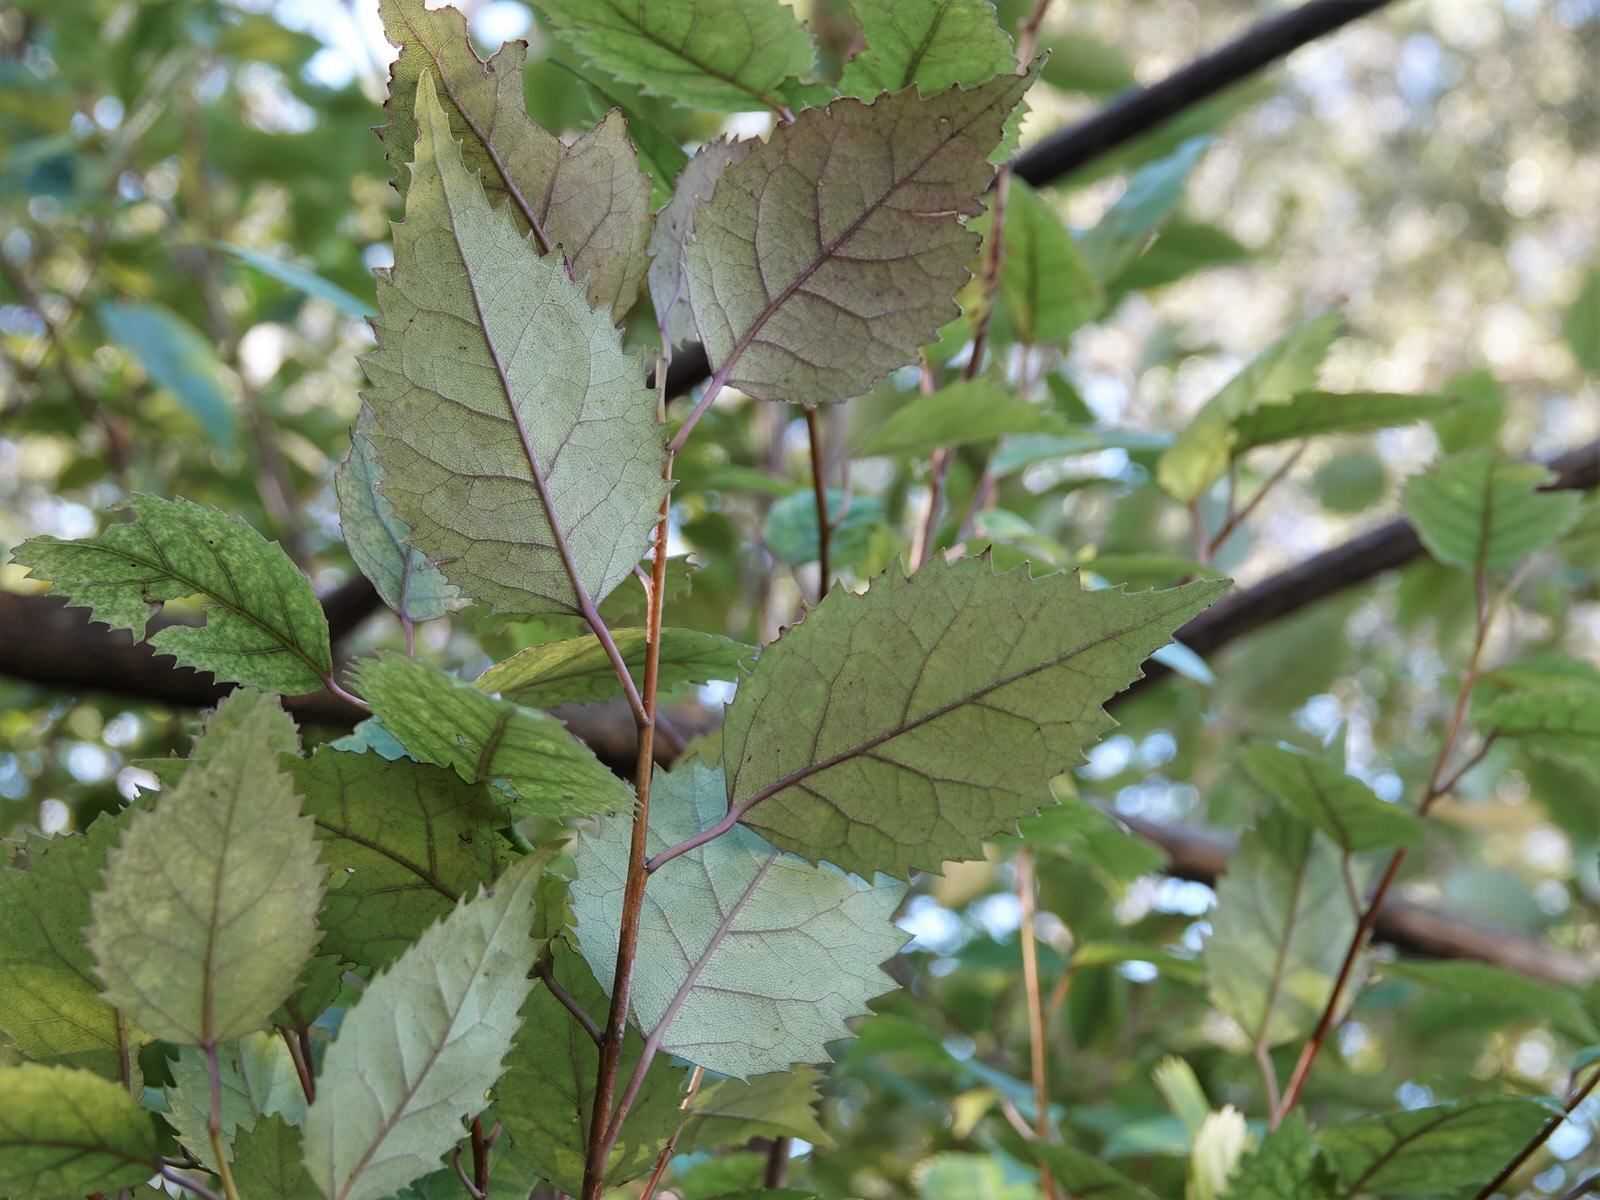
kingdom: Plantae
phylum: Tracheophyta
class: Magnoliopsida
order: Malvales
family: Malvaceae
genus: Hoheria
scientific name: Hoheria populnea
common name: Lacebark
